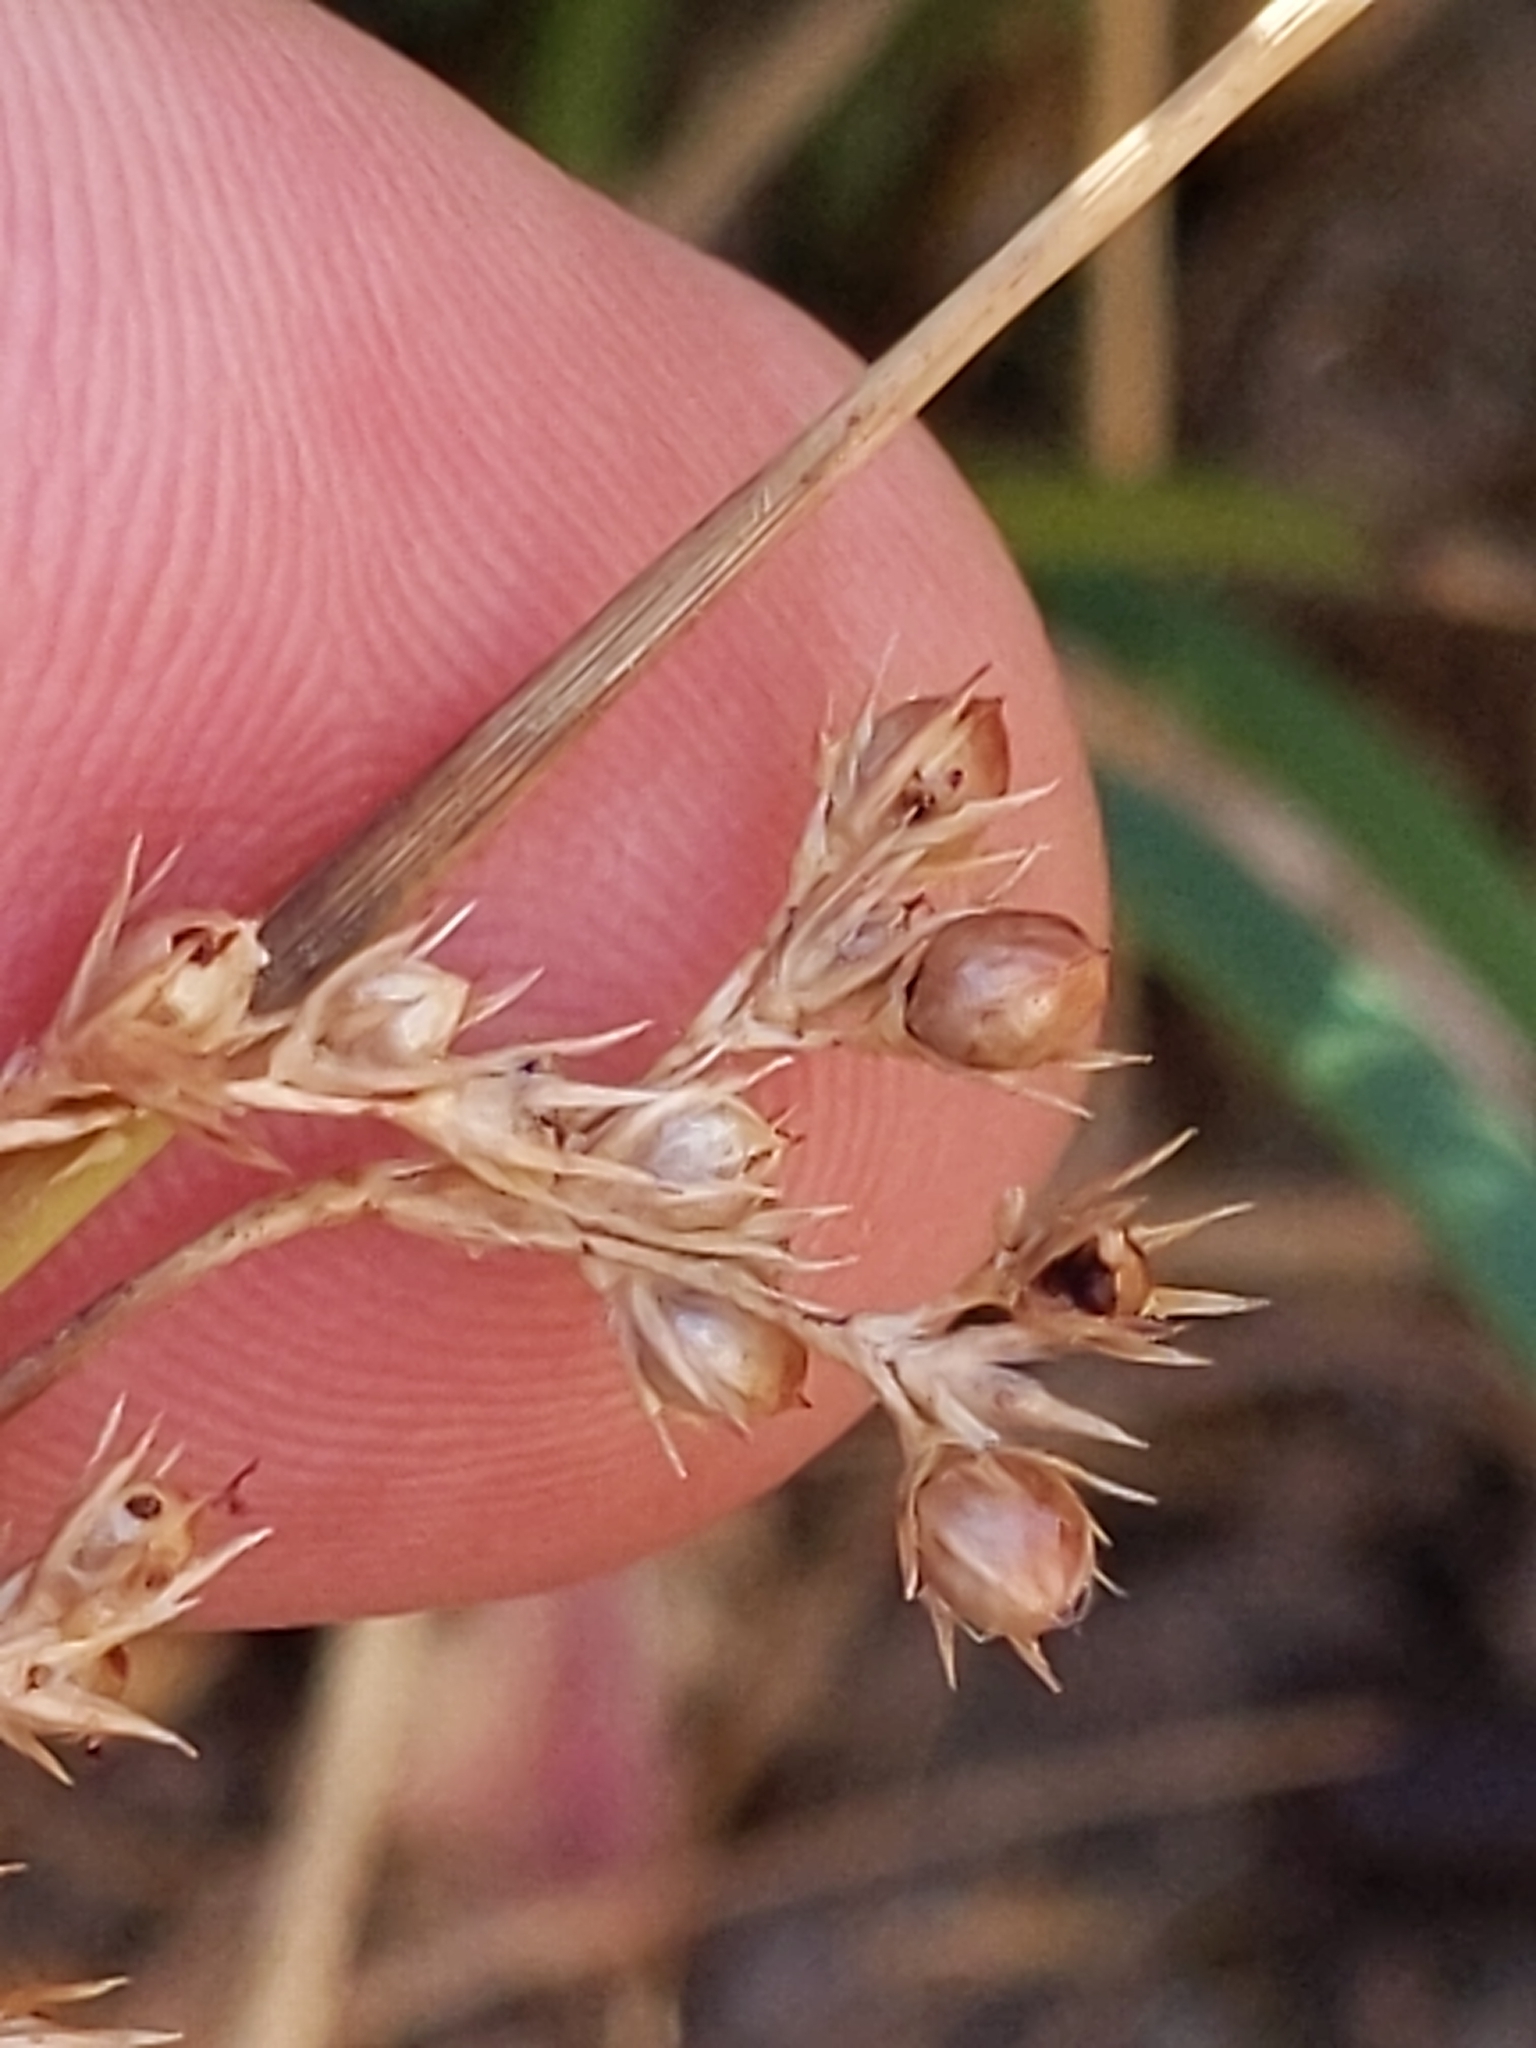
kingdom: Plantae
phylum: Tracheophyta
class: Liliopsida
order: Poales
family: Juncaceae
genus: Juncus
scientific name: Juncus patens
